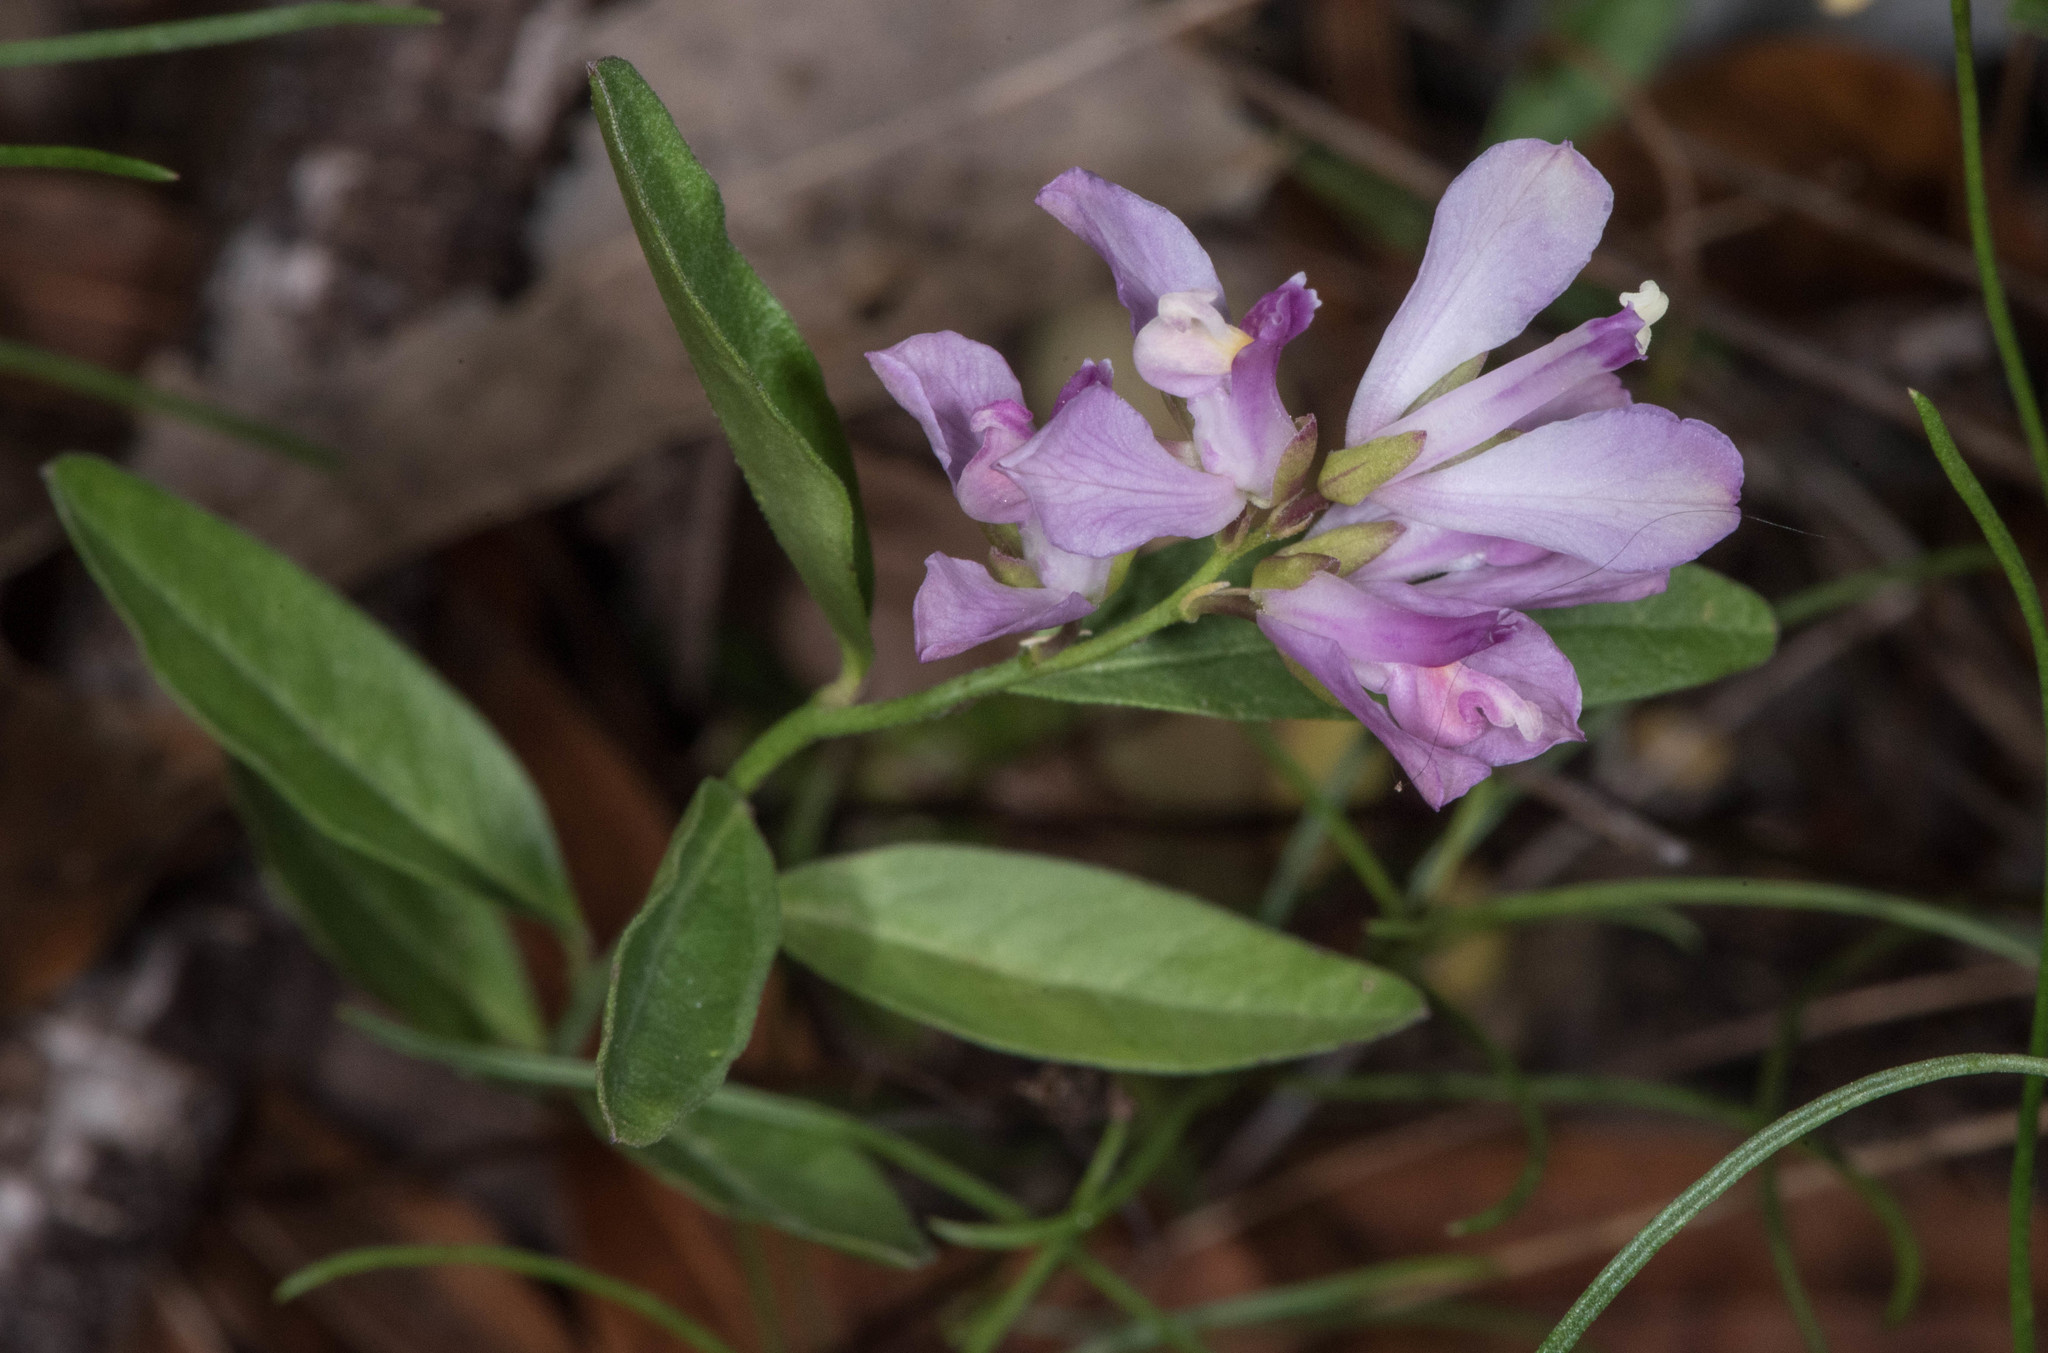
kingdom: Plantae
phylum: Tracheophyta
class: Magnoliopsida
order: Fabales
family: Polygalaceae
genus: Rhinotropis
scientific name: Rhinotropis californica
